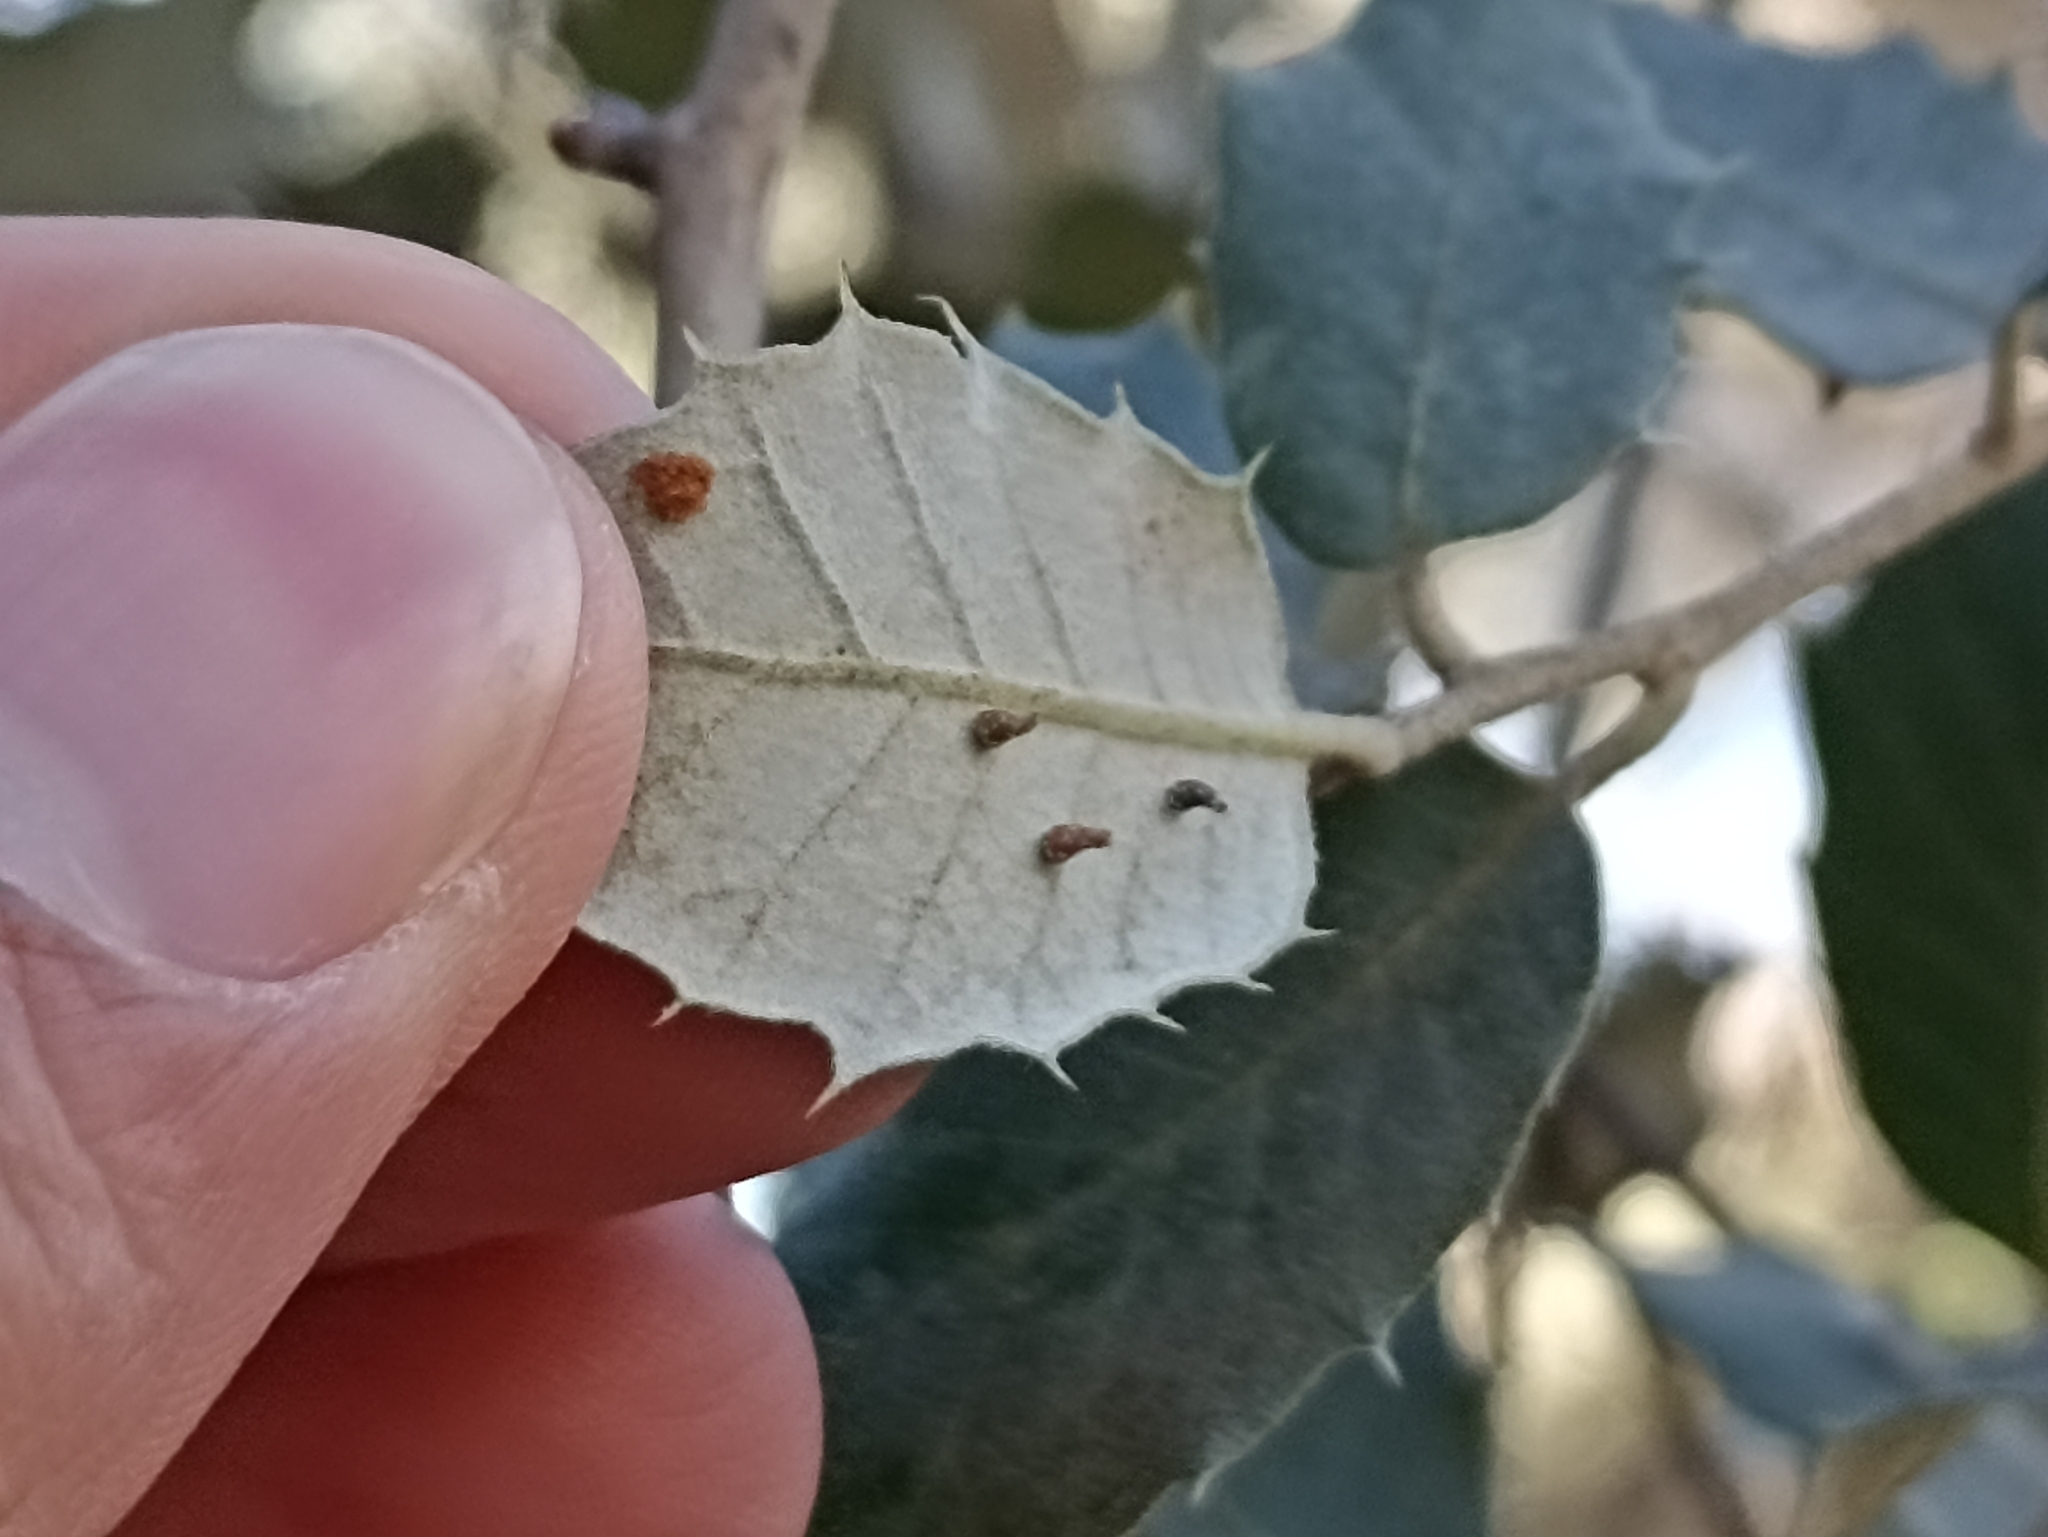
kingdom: Animalia
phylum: Arthropoda
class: Insecta
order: Diptera
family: Cecidomyiidae
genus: Contarinia
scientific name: Contarinia ilicis
